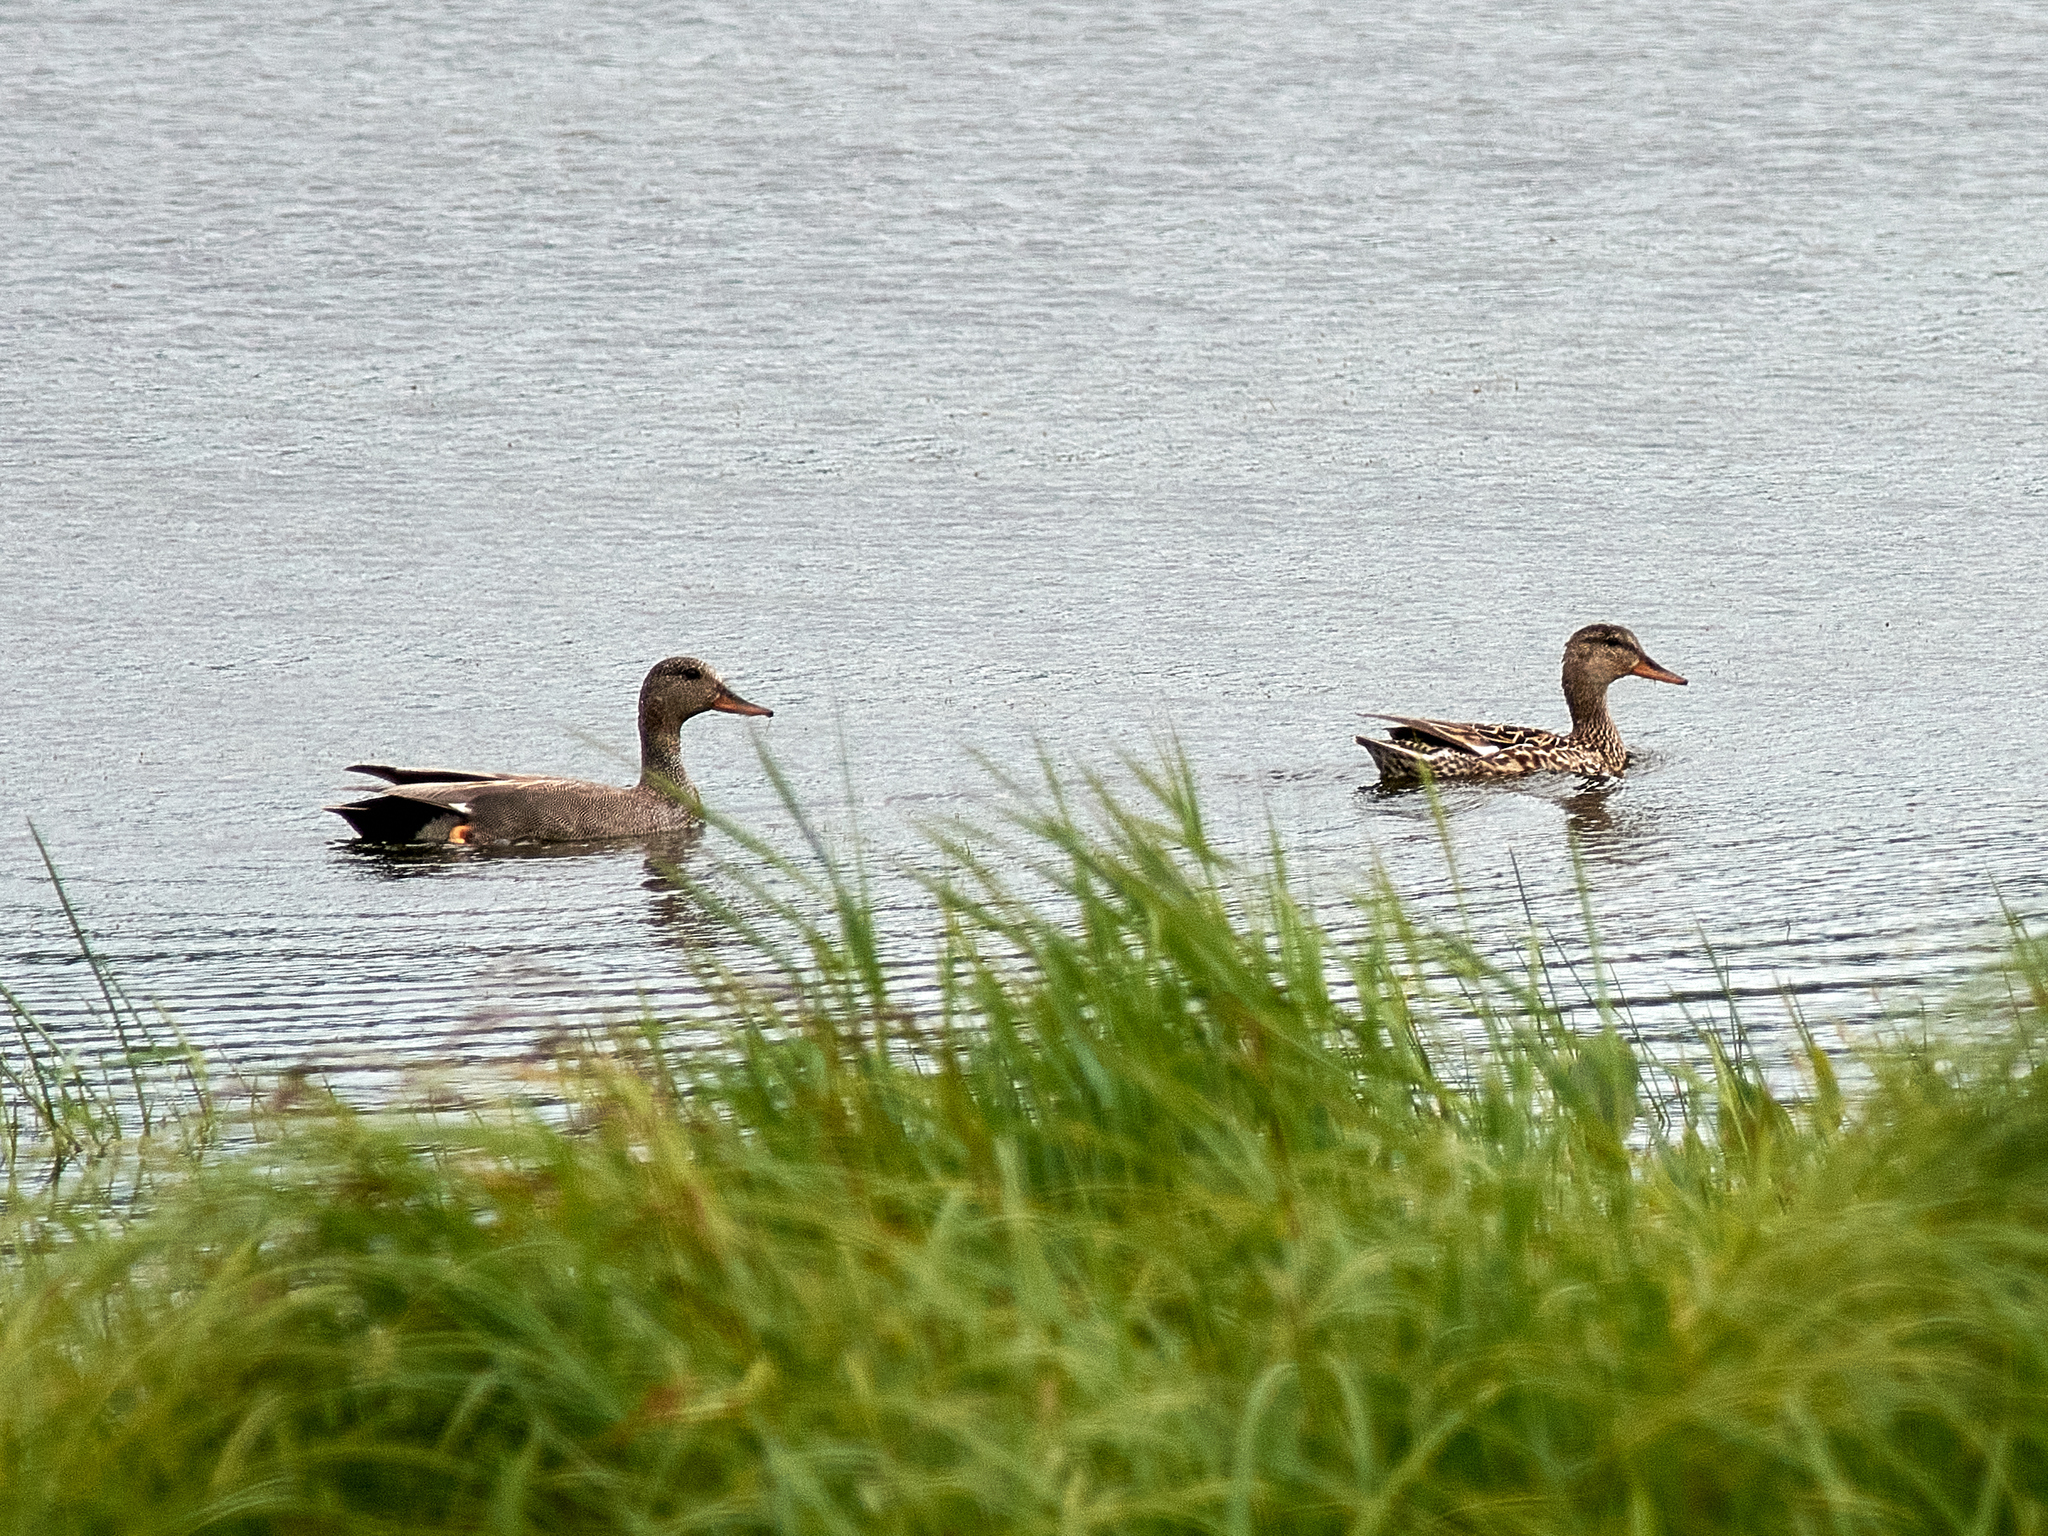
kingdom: Animalia
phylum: Chordata
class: Aves
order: Anseriformes
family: Anatidae
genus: Mareca
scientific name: Mareca strepera
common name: Gadwall
